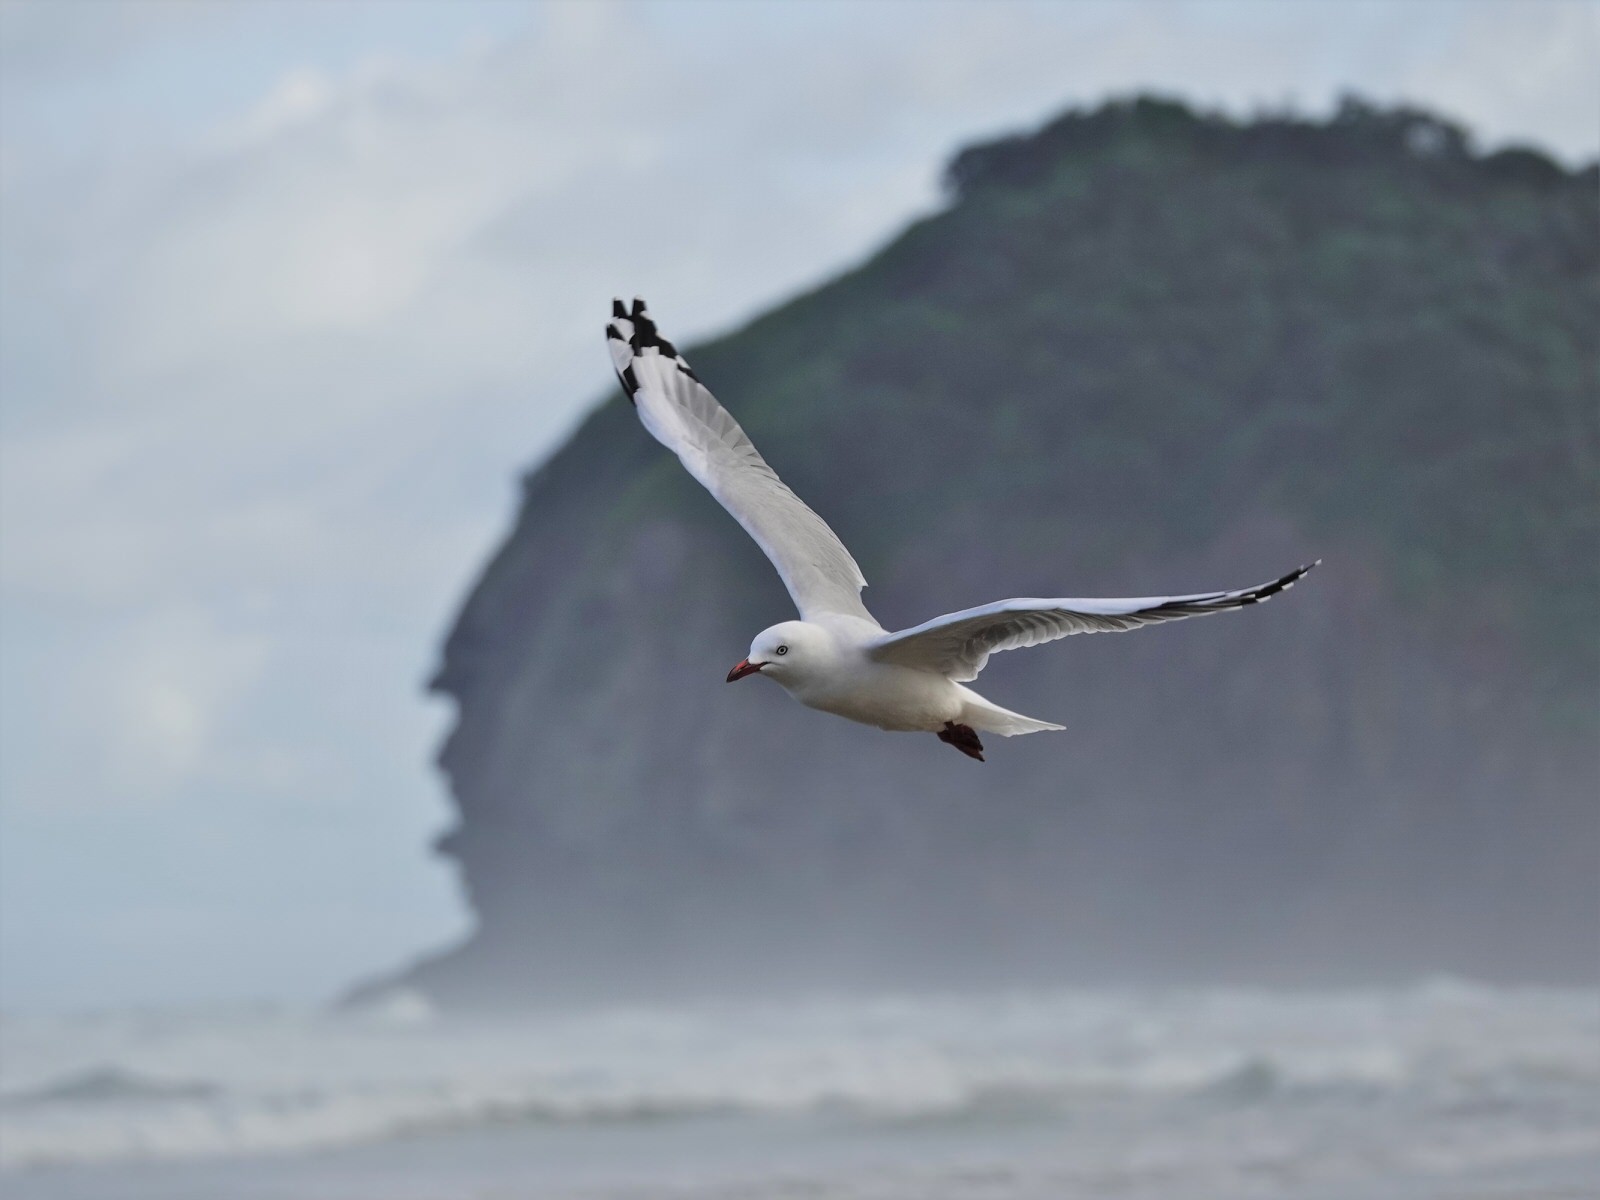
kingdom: Animalia
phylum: Chordata
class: Aves
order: Charadriiformes
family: Laridae
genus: Chroicocephalus
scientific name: Chroicocephalus novaehollandiae
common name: Silver gull
